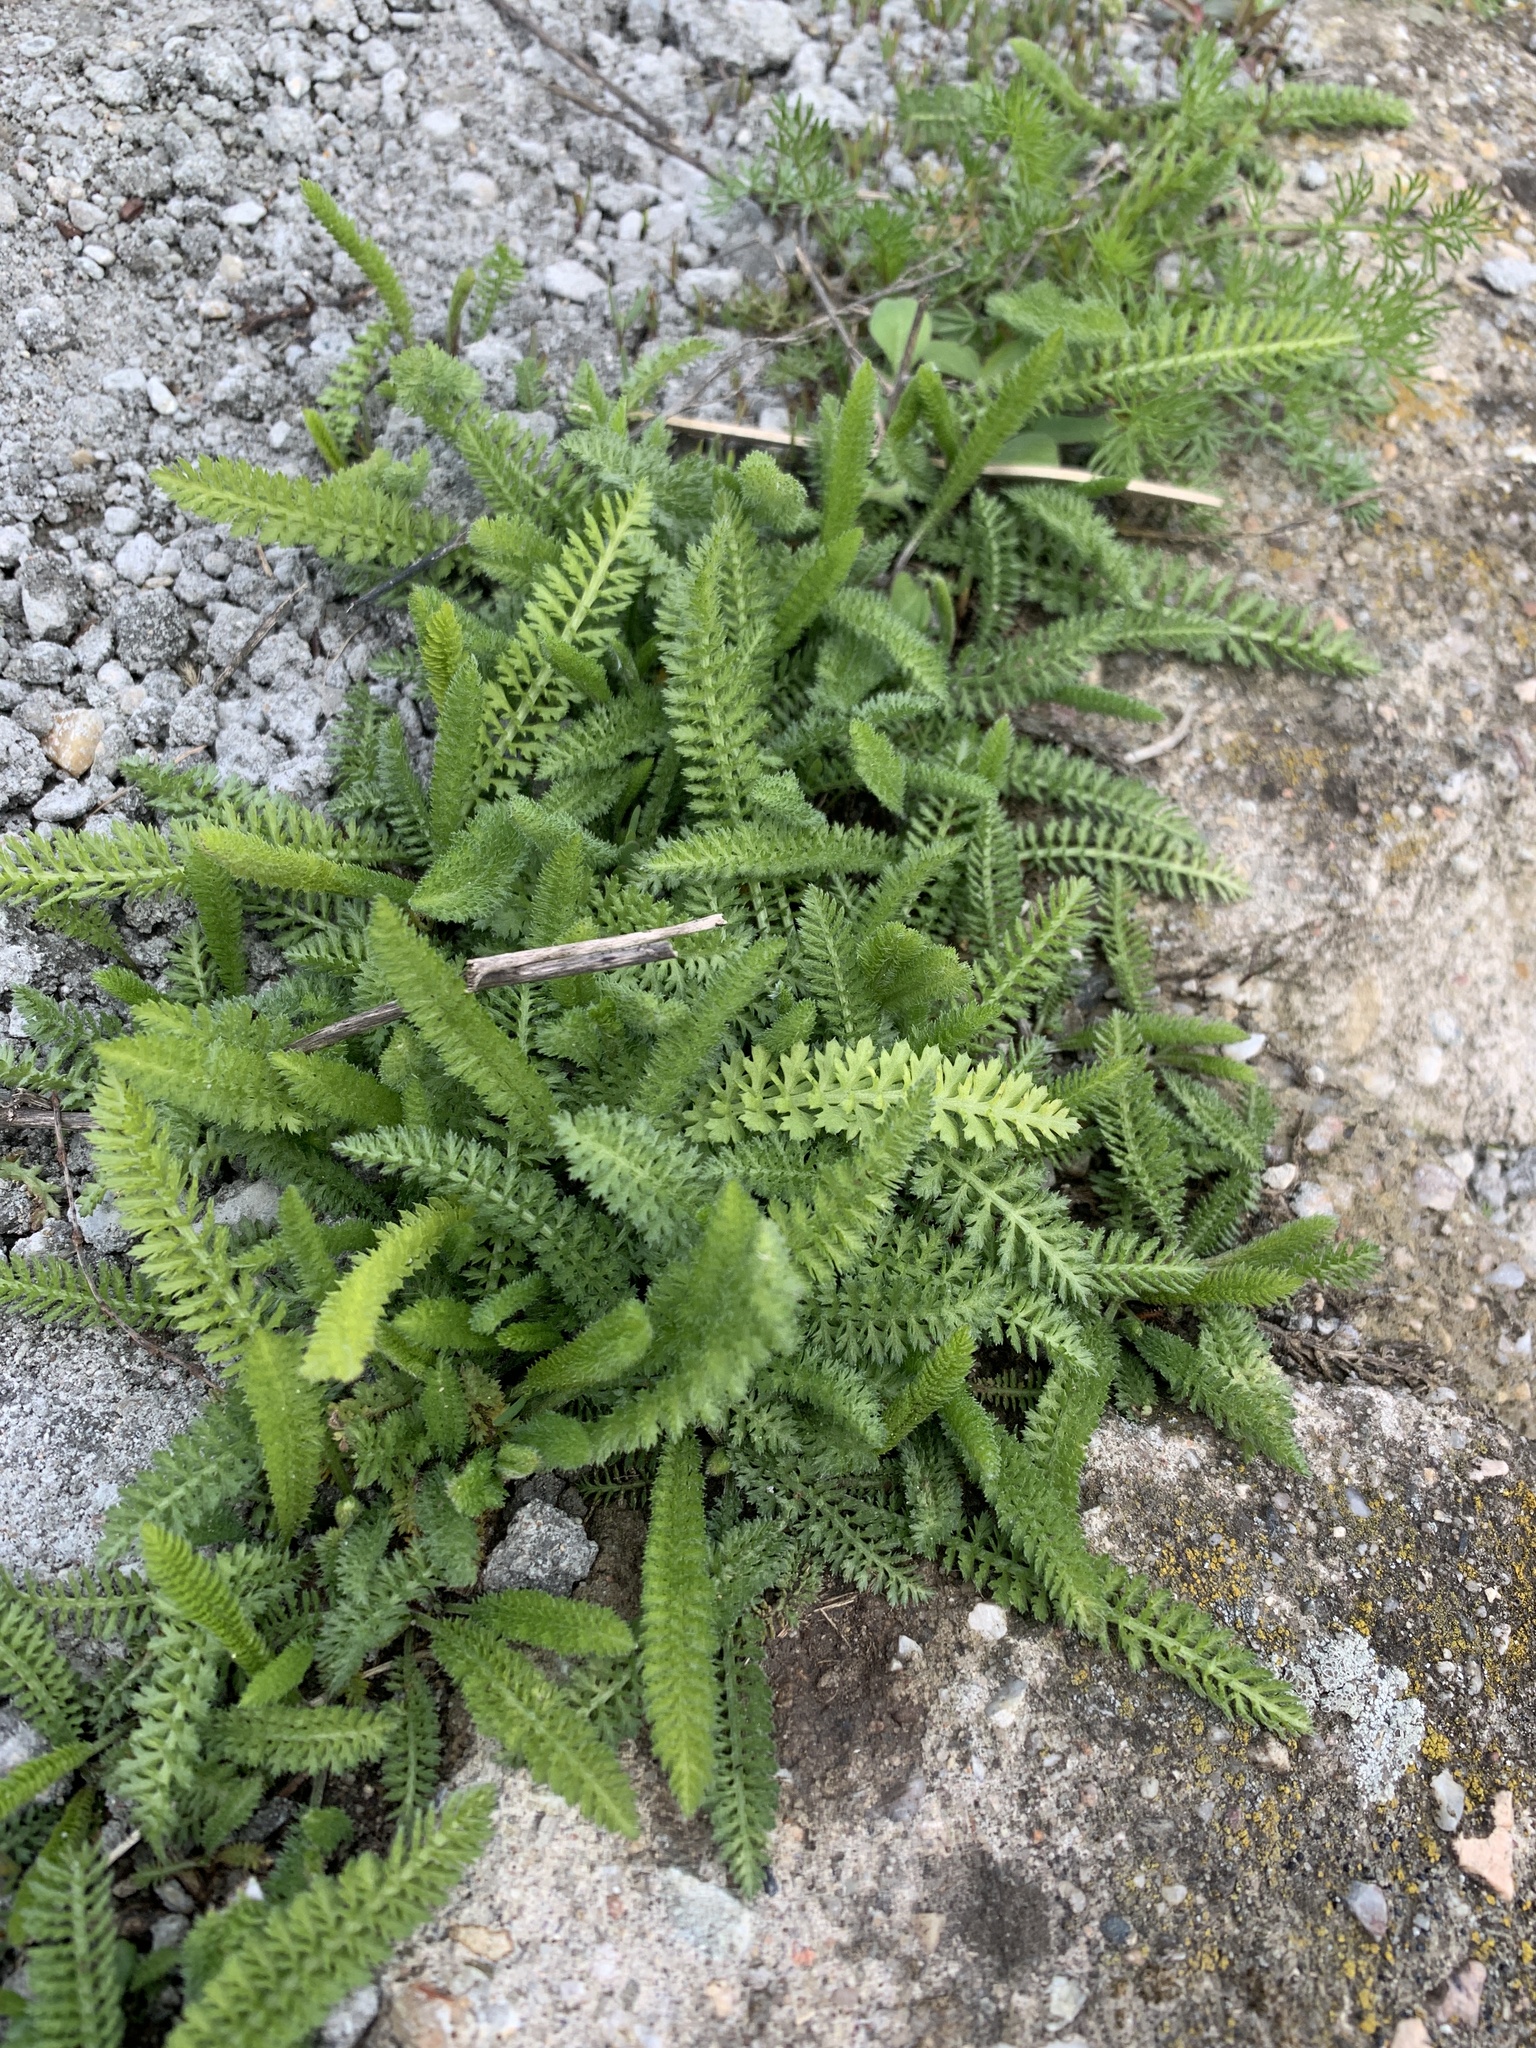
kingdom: Plantae
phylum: Tracheophyta
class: Magnoliopsida
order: Asterales
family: Asteraceae
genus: Achillea
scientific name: Achillea millefolium
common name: Yarrow
